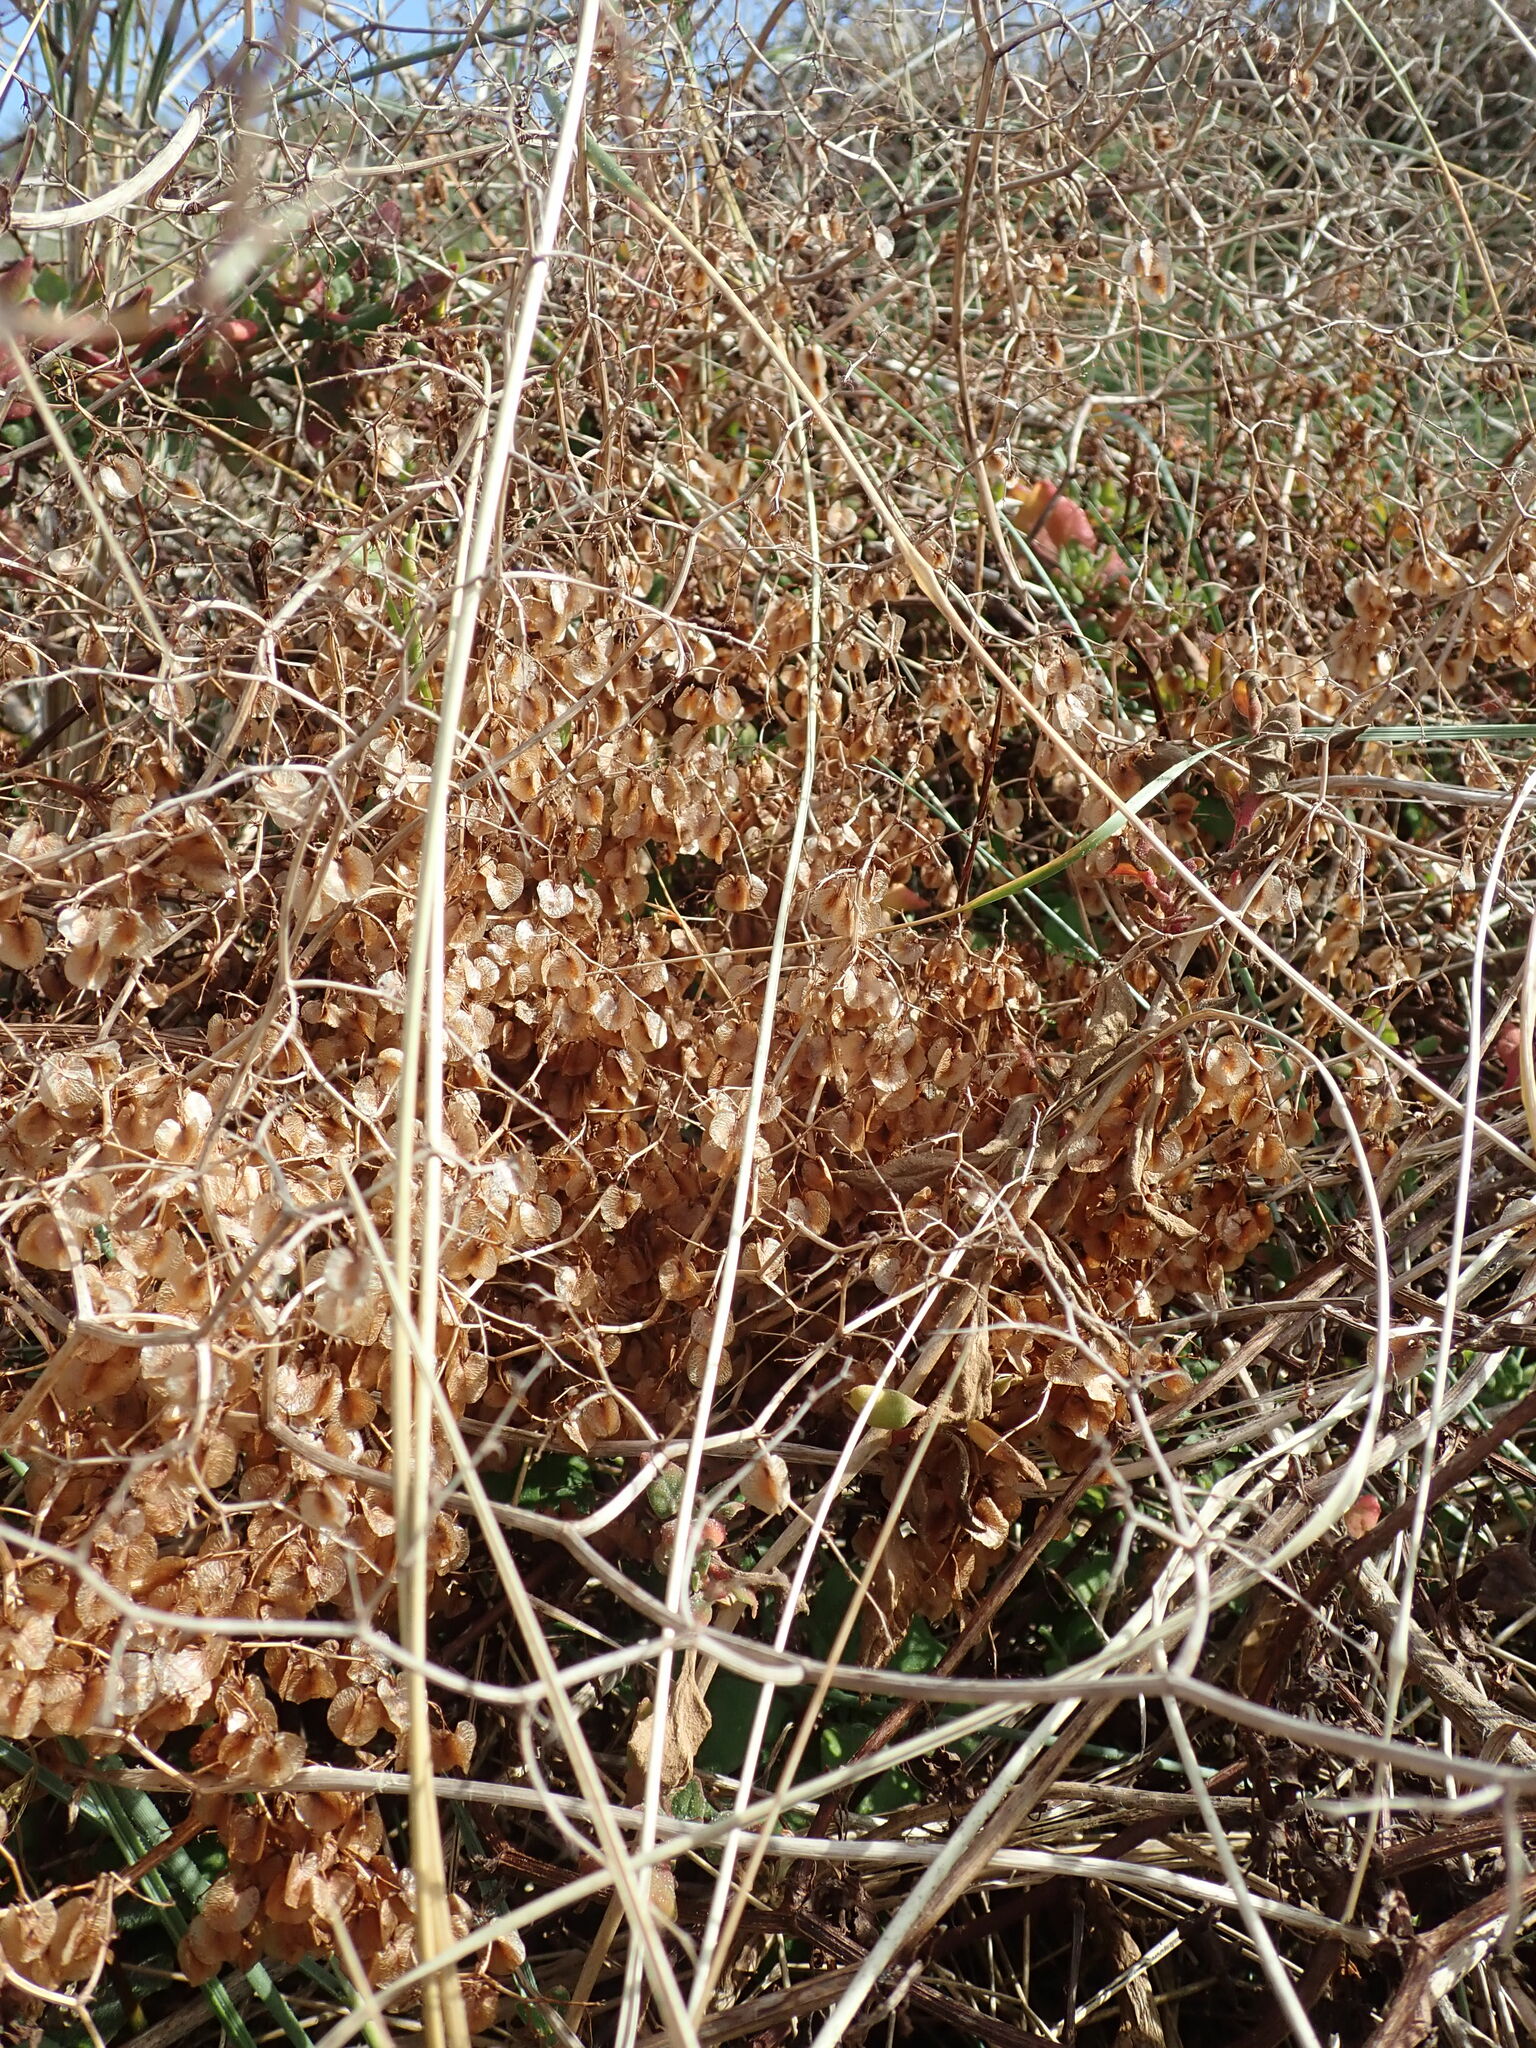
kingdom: Plantae
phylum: Tracheophyta
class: Magnoliopsida
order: Caryophyllales
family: Polygonaceae
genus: Rumex
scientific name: Rumex sagittatus
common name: Climbing dock
